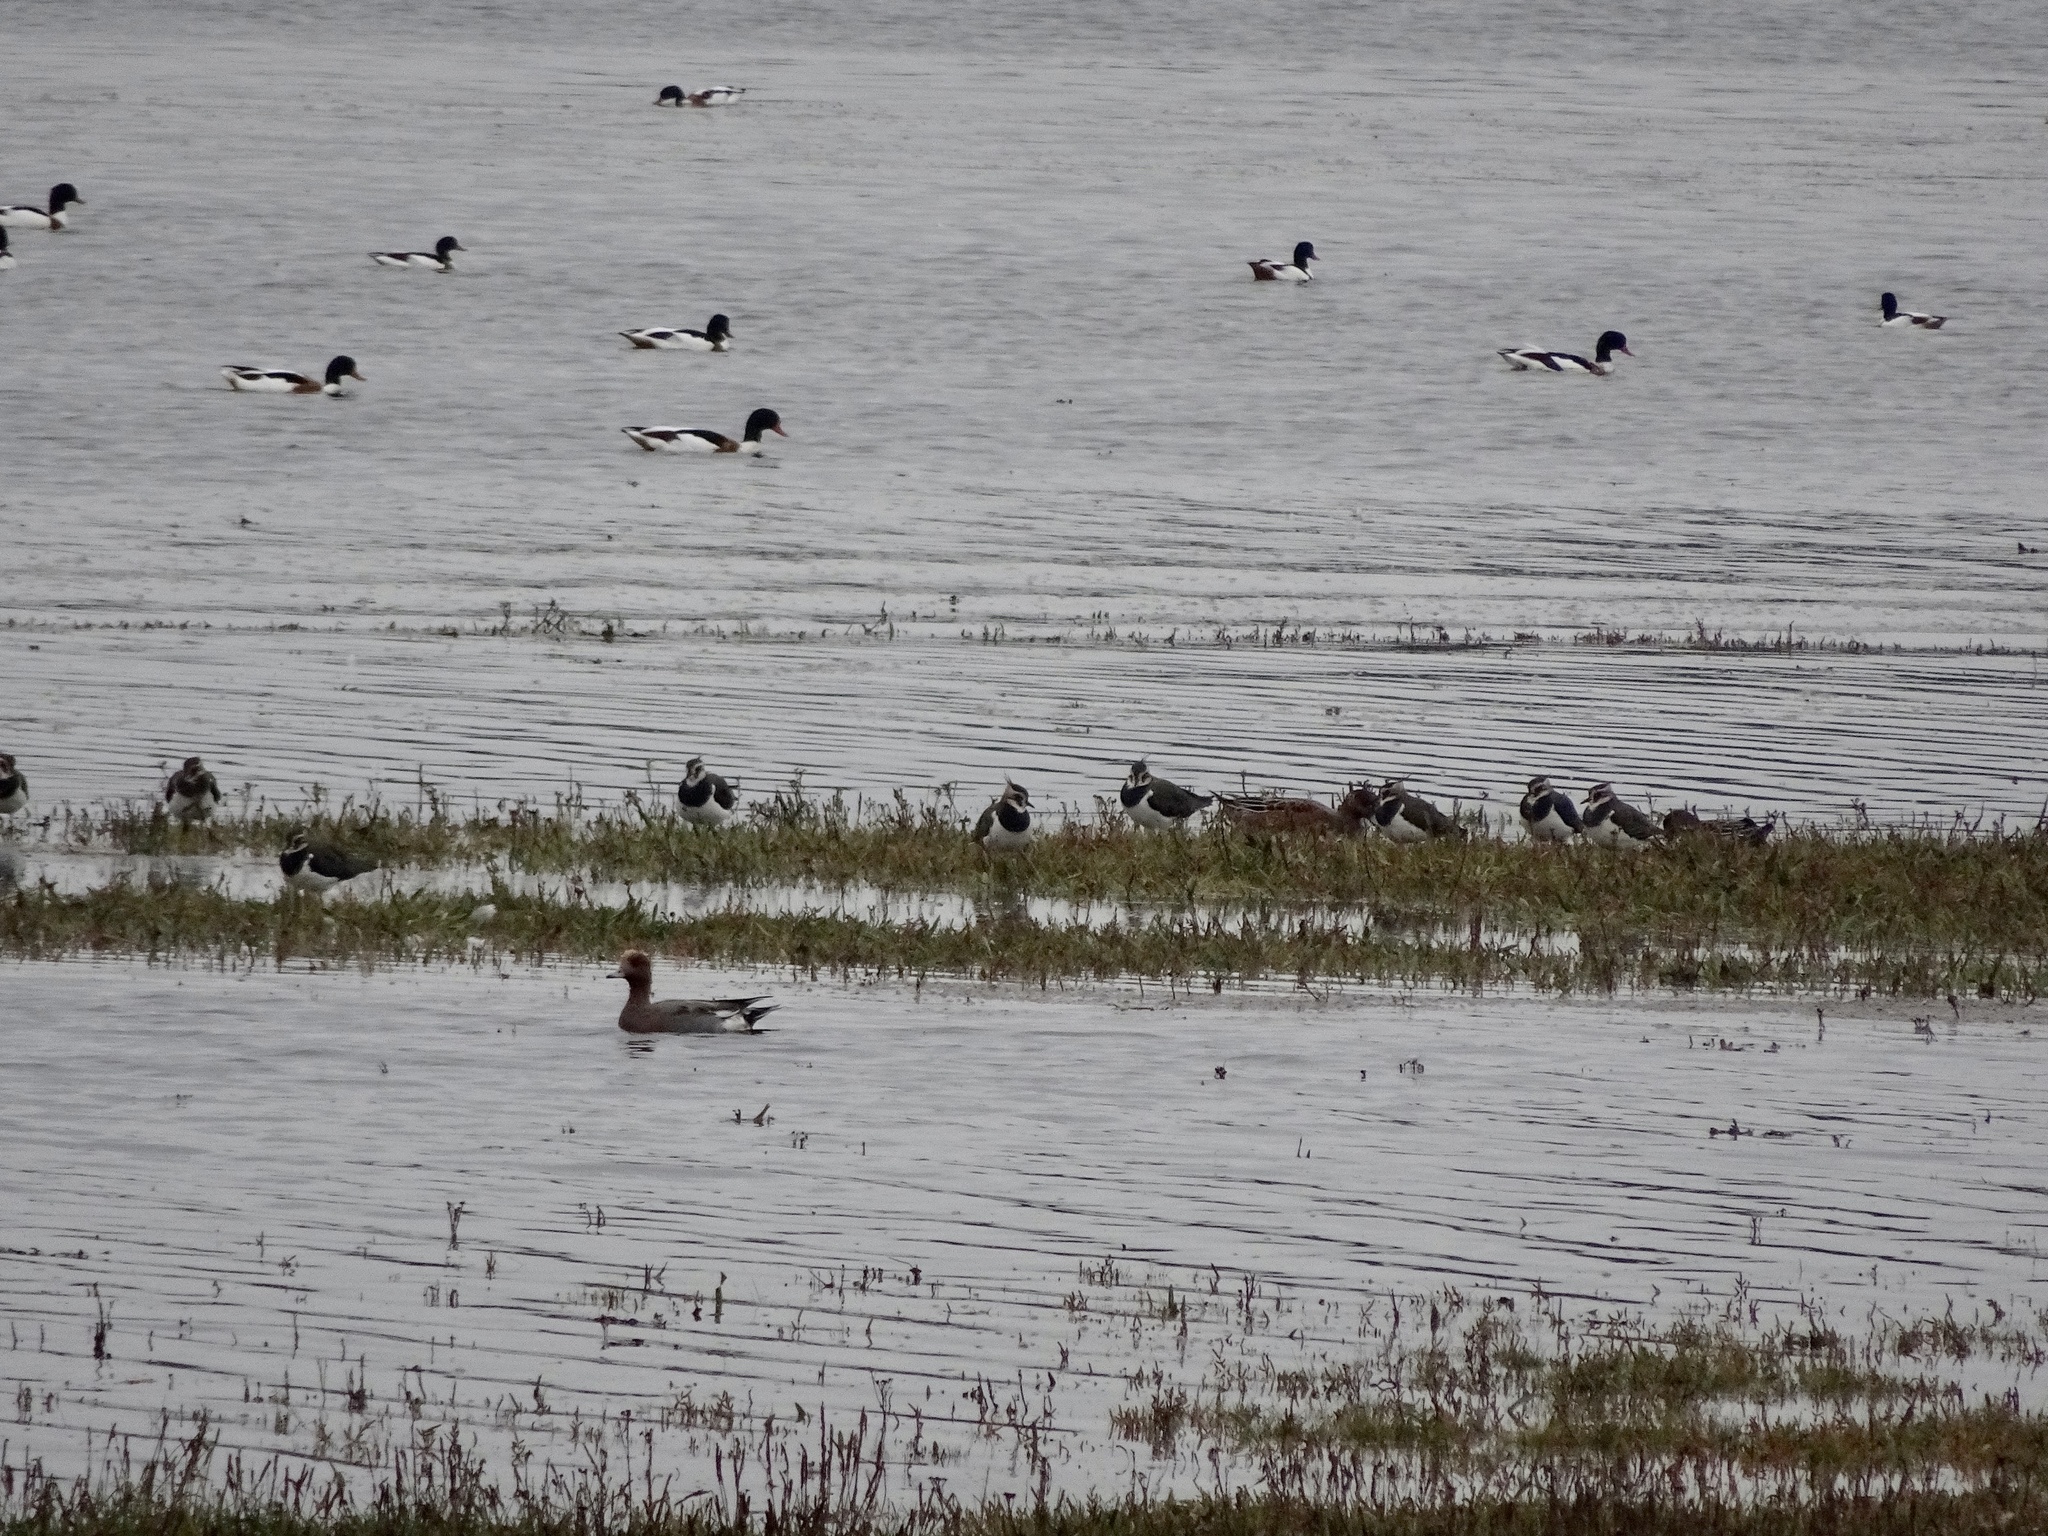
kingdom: Animalia
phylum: Chordata
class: Aves
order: Charadriiformes
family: Charadriidae
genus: Vanellus
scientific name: Vanellus vanellus
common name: Northern lapwing
